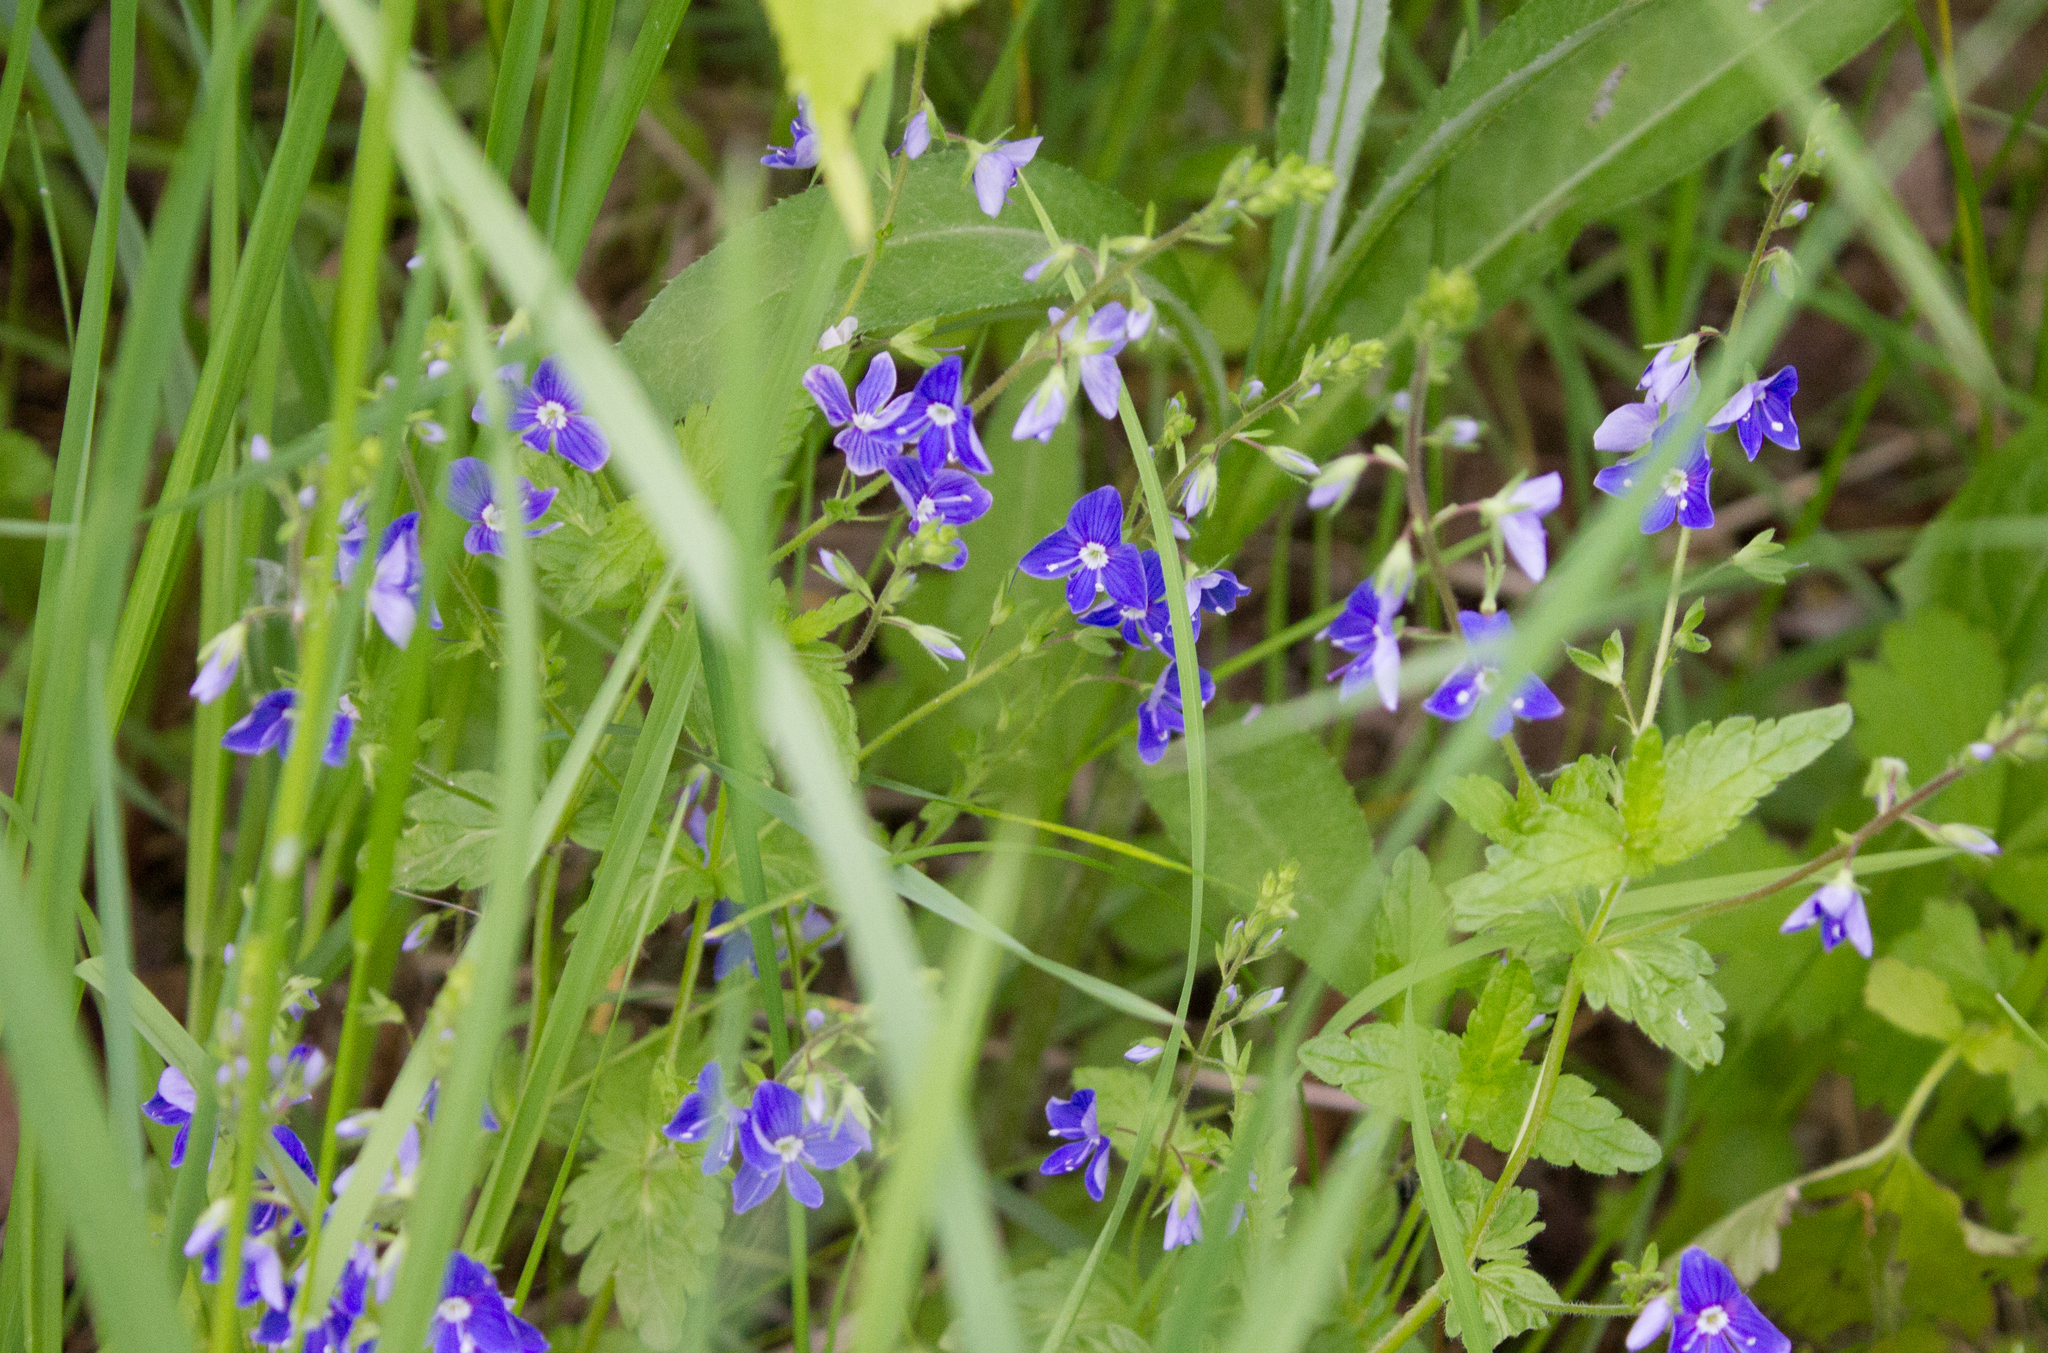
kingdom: Plantae
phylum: Tracheophyta
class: Magnoliopsida
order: Lamiales
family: Plantaginaceae
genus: Veronica
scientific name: Veronica chamaedrys
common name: Germander speedwell
